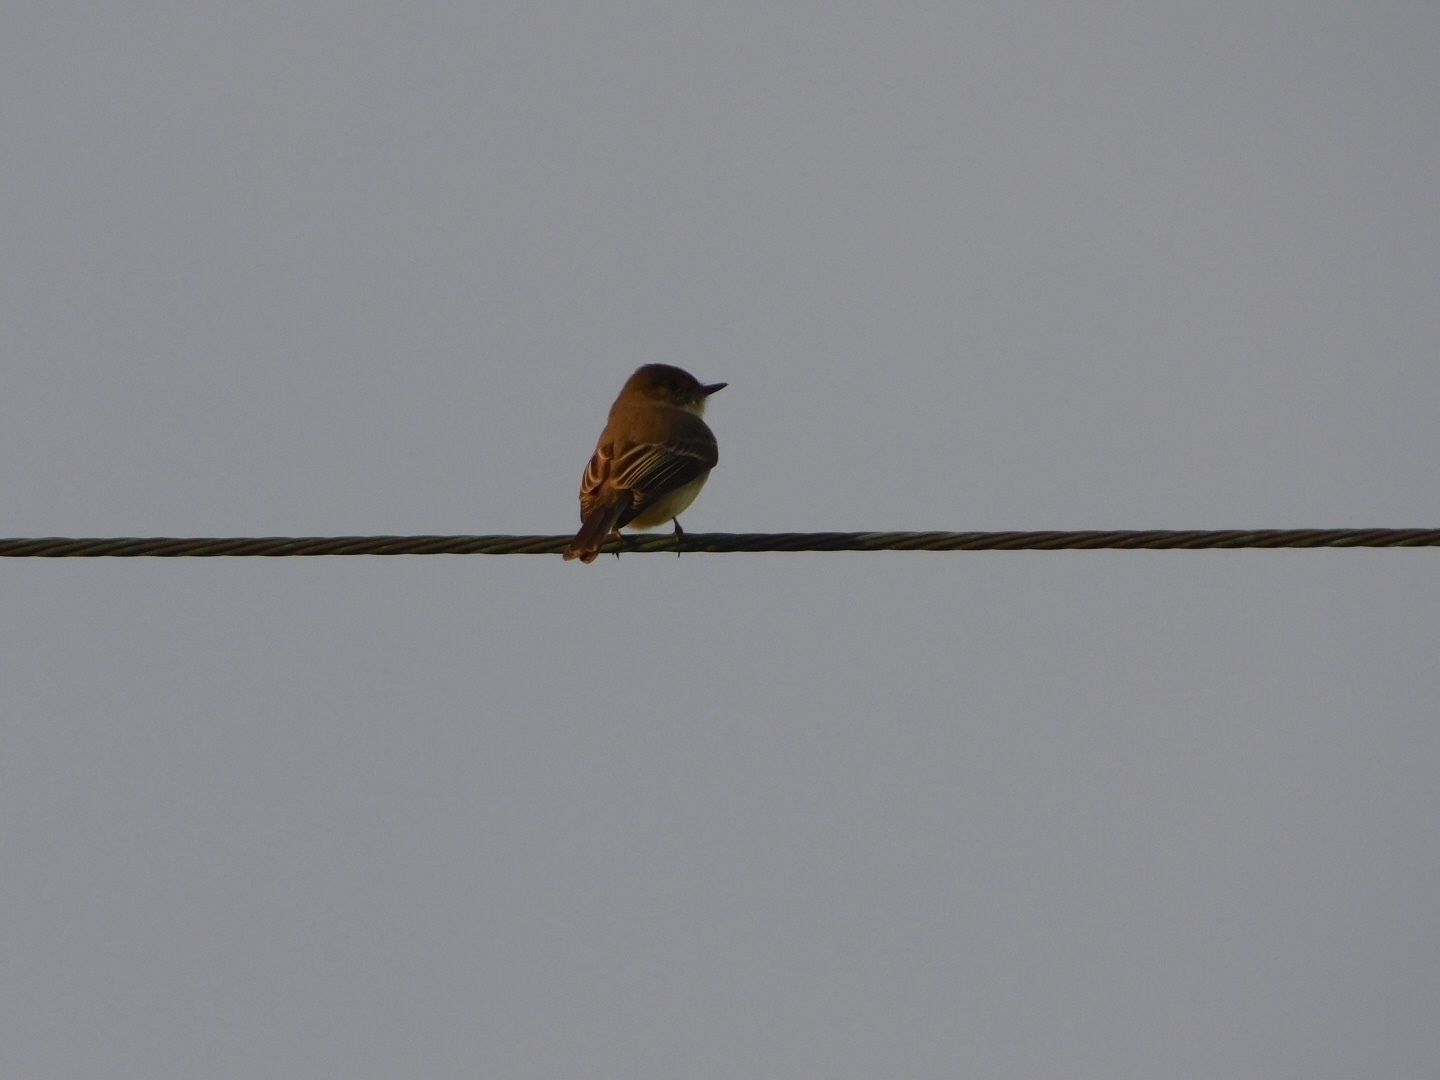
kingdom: Animalia
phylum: Chordata
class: Aves
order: Passeriformes
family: Tyrannidae
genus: Sayornis
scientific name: Sayornis phoebe
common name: Eastern phoebe
